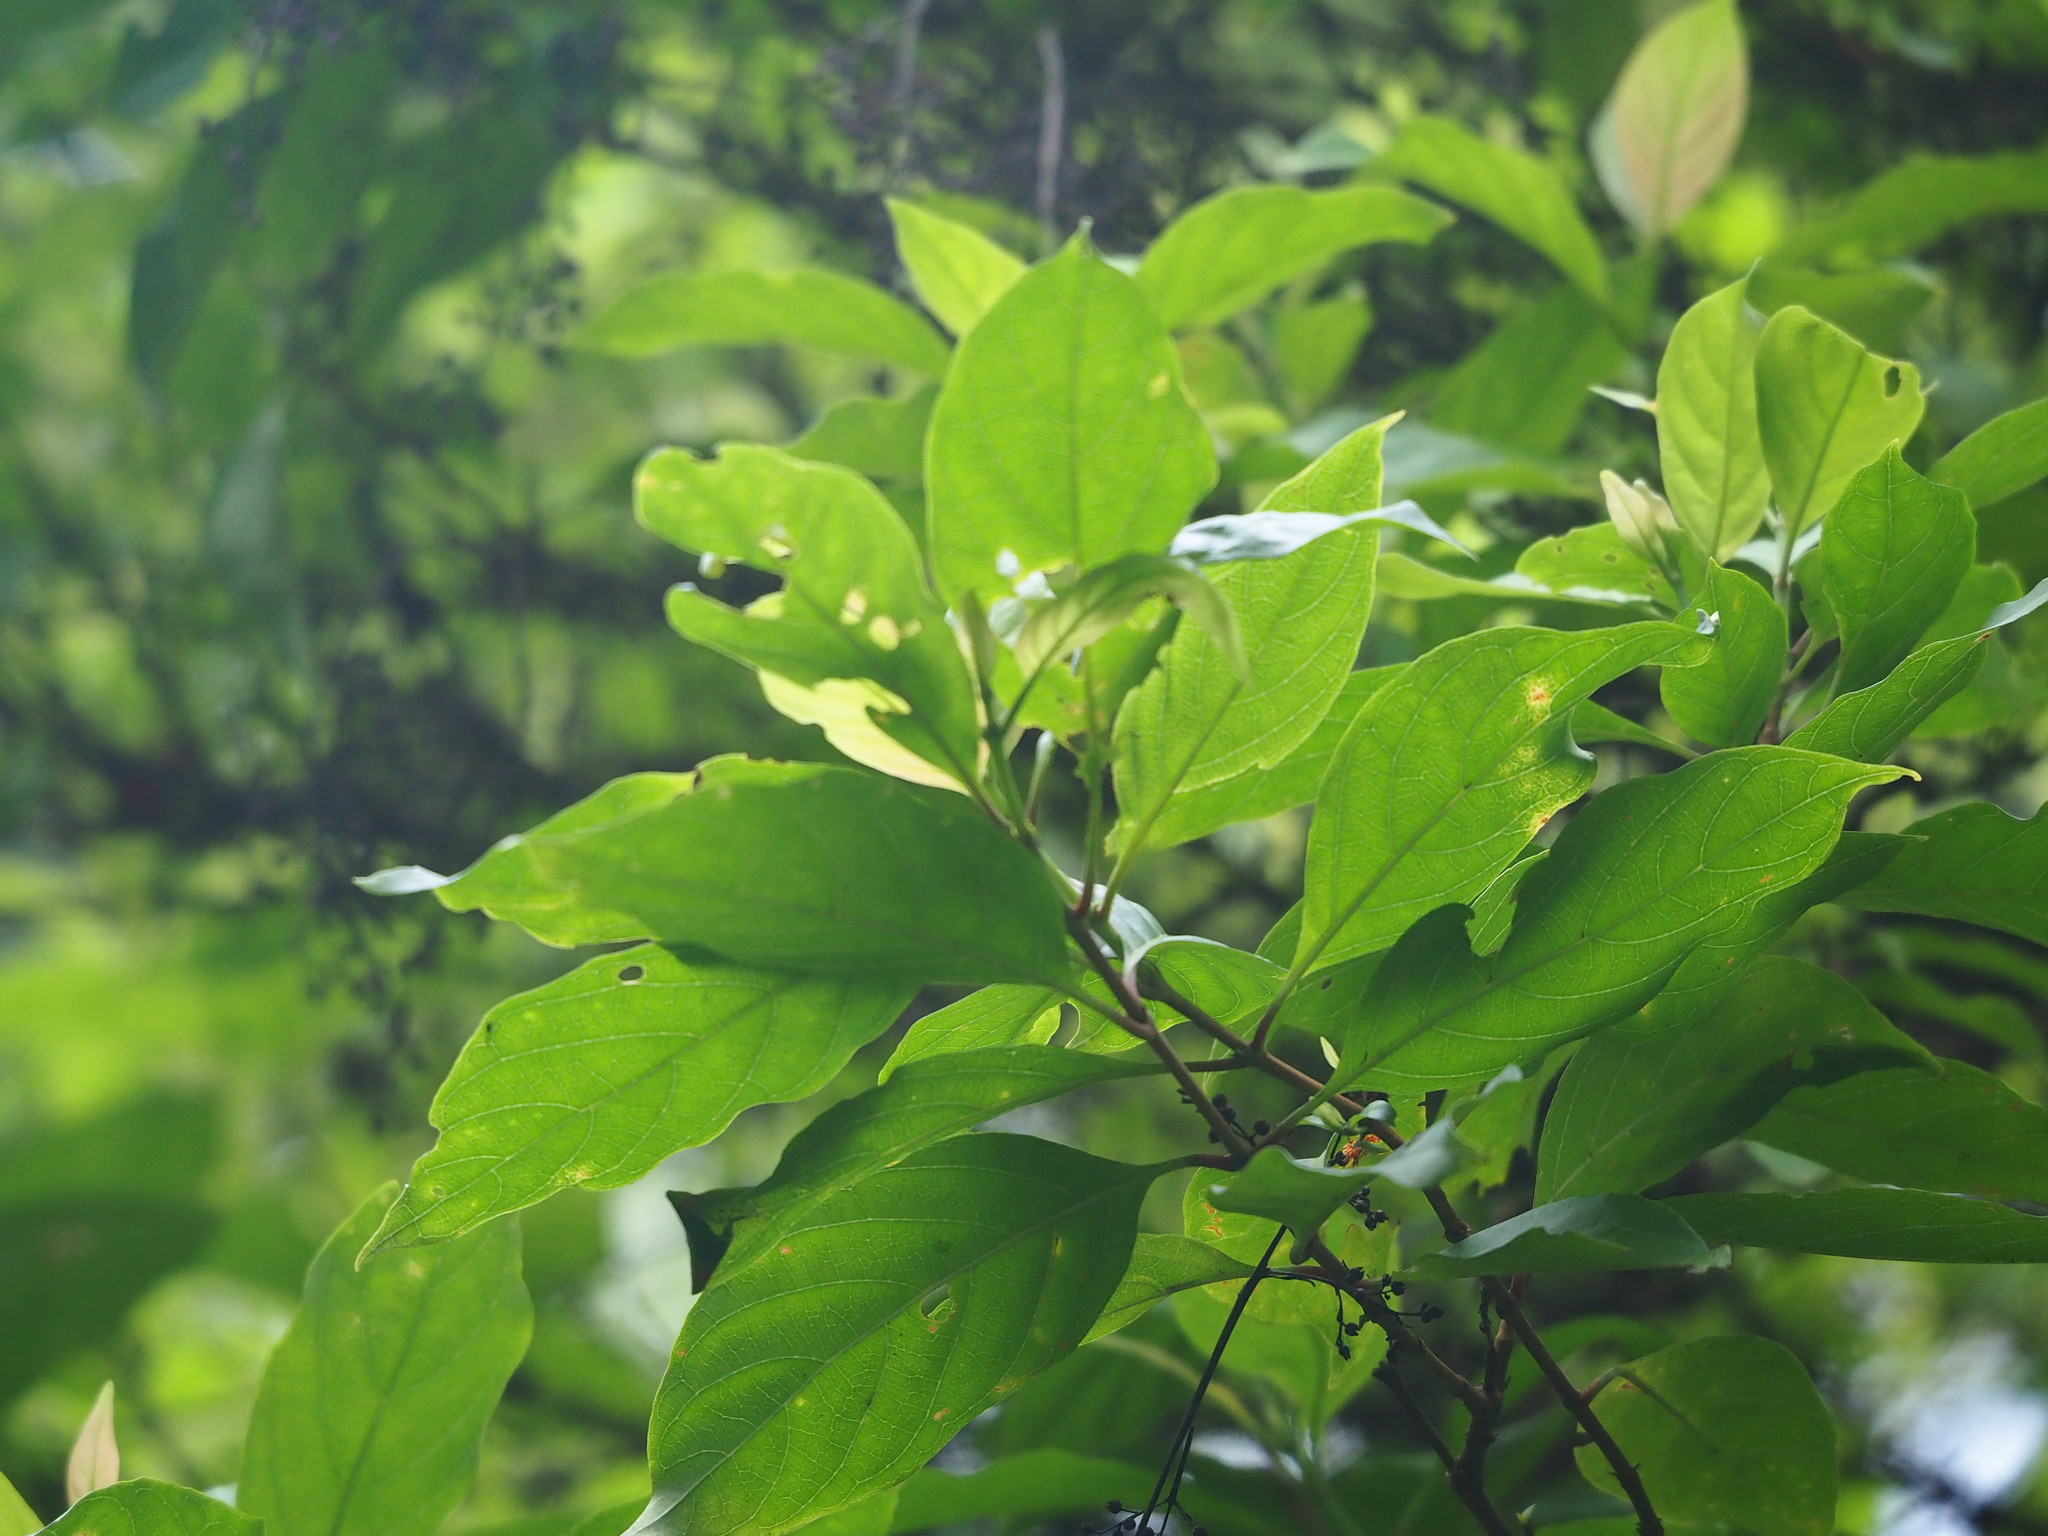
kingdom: Plantae
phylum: Tracheophyta
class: Magnoliopsida
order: Gentianales
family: Rubiaceae
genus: Wendlandia
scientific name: Wendlandia formosana
